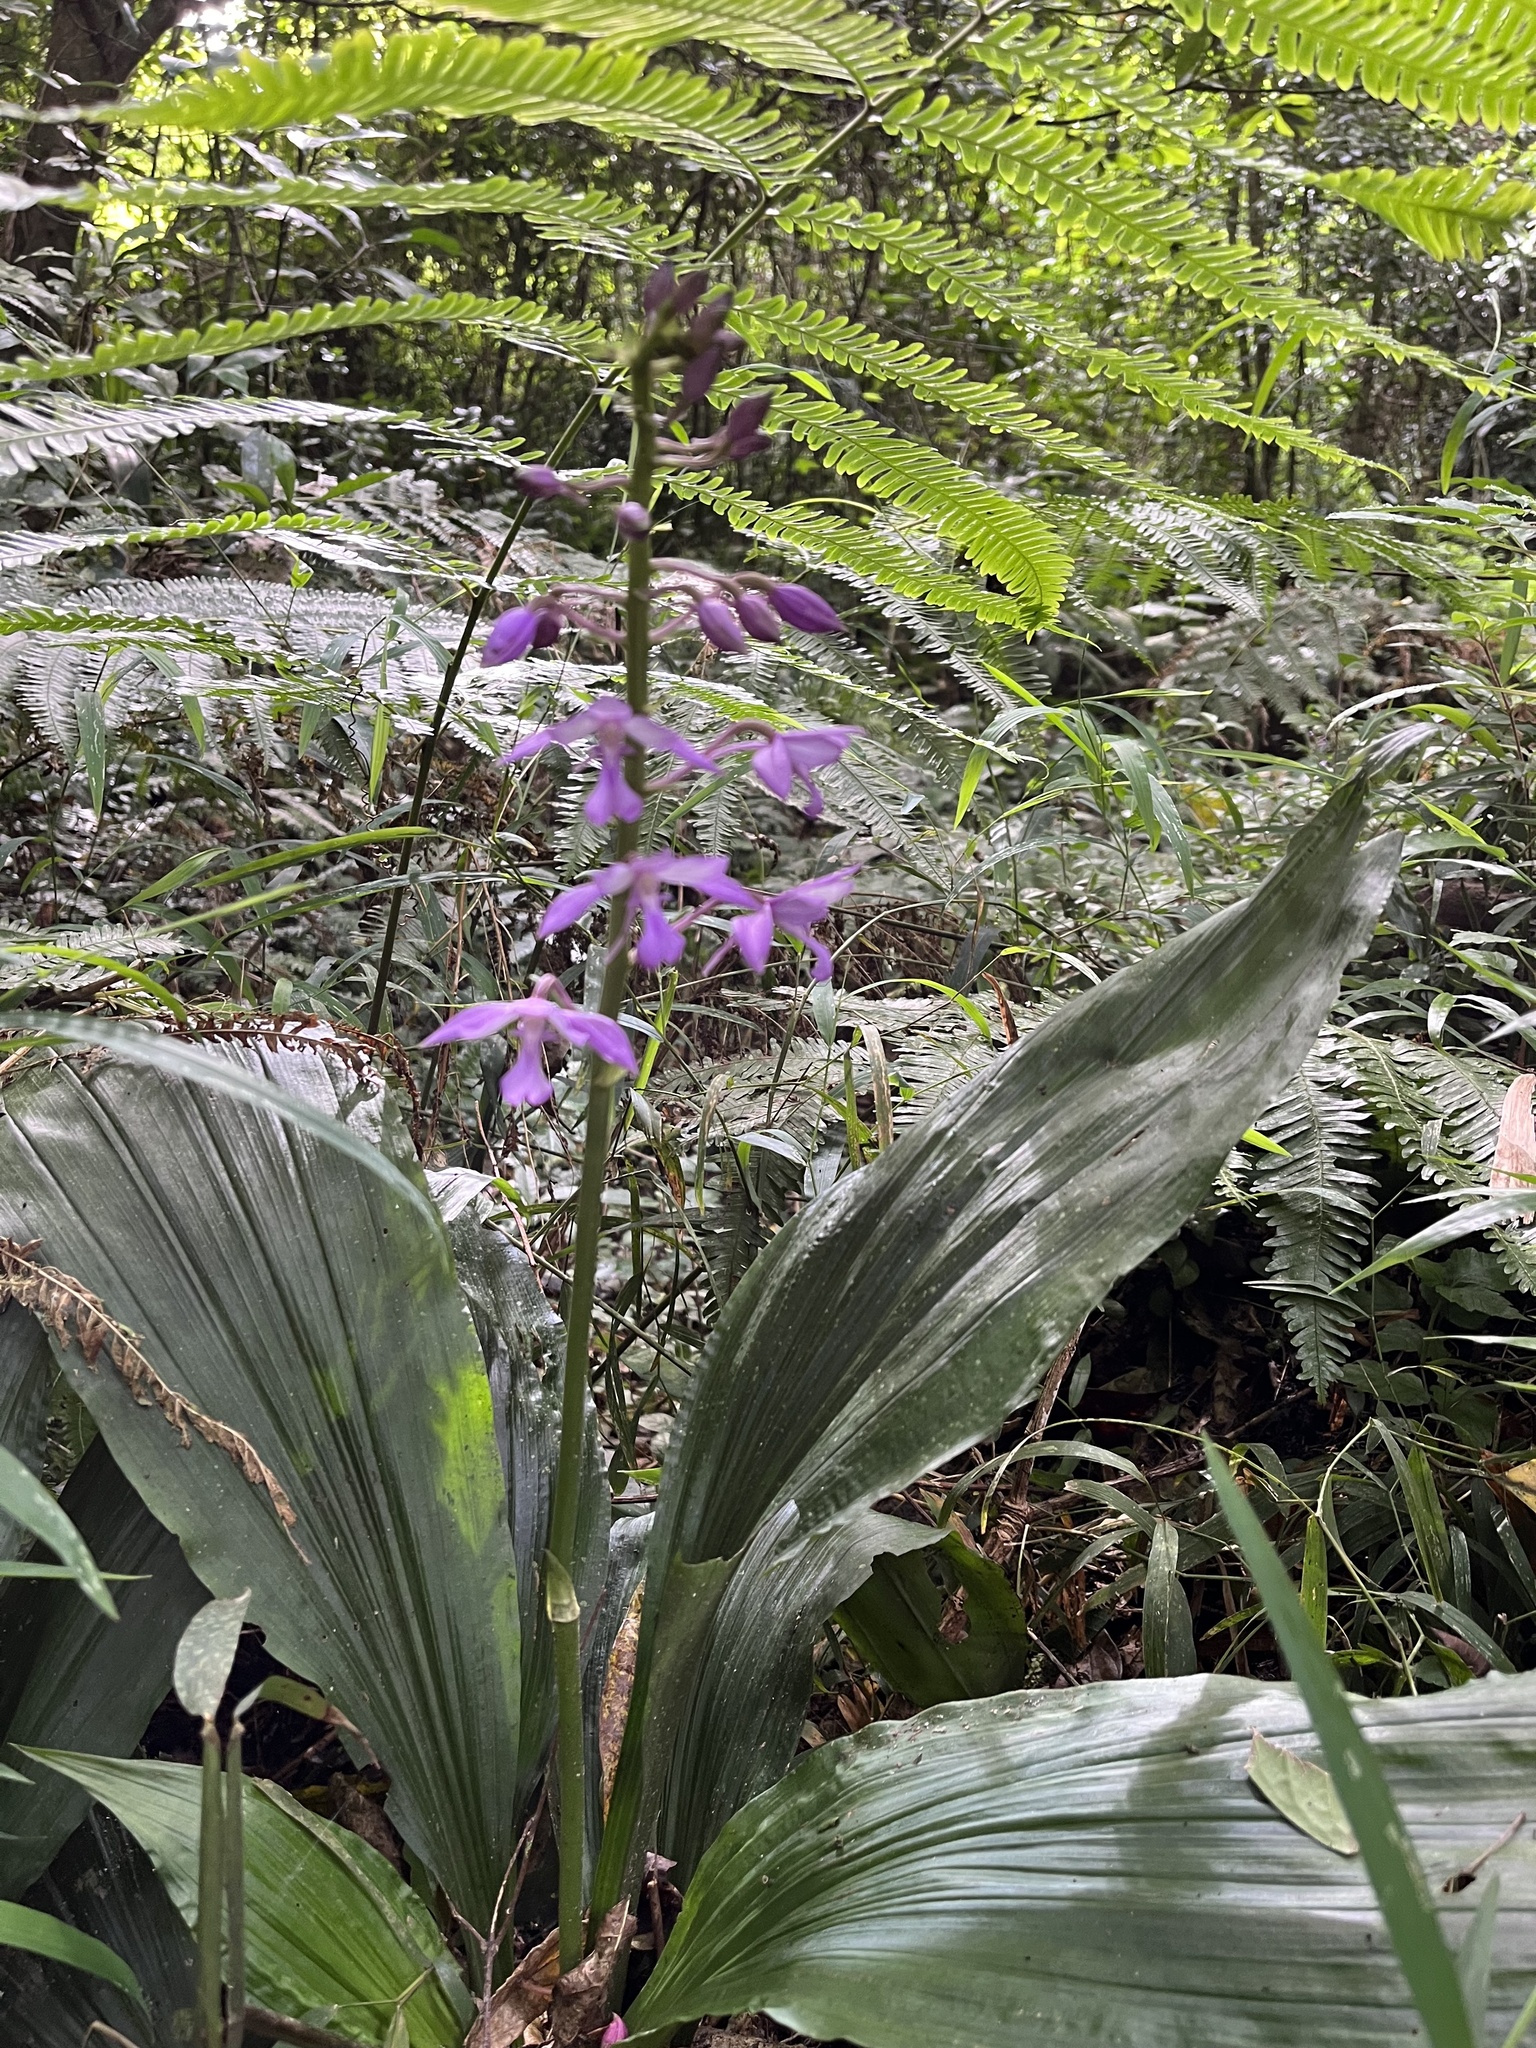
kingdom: Plantae
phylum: Tracheophyta
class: Liliopsida
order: Asparagales
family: Orchidaceae
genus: Calanthe
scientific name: Calanthe sylvatica
